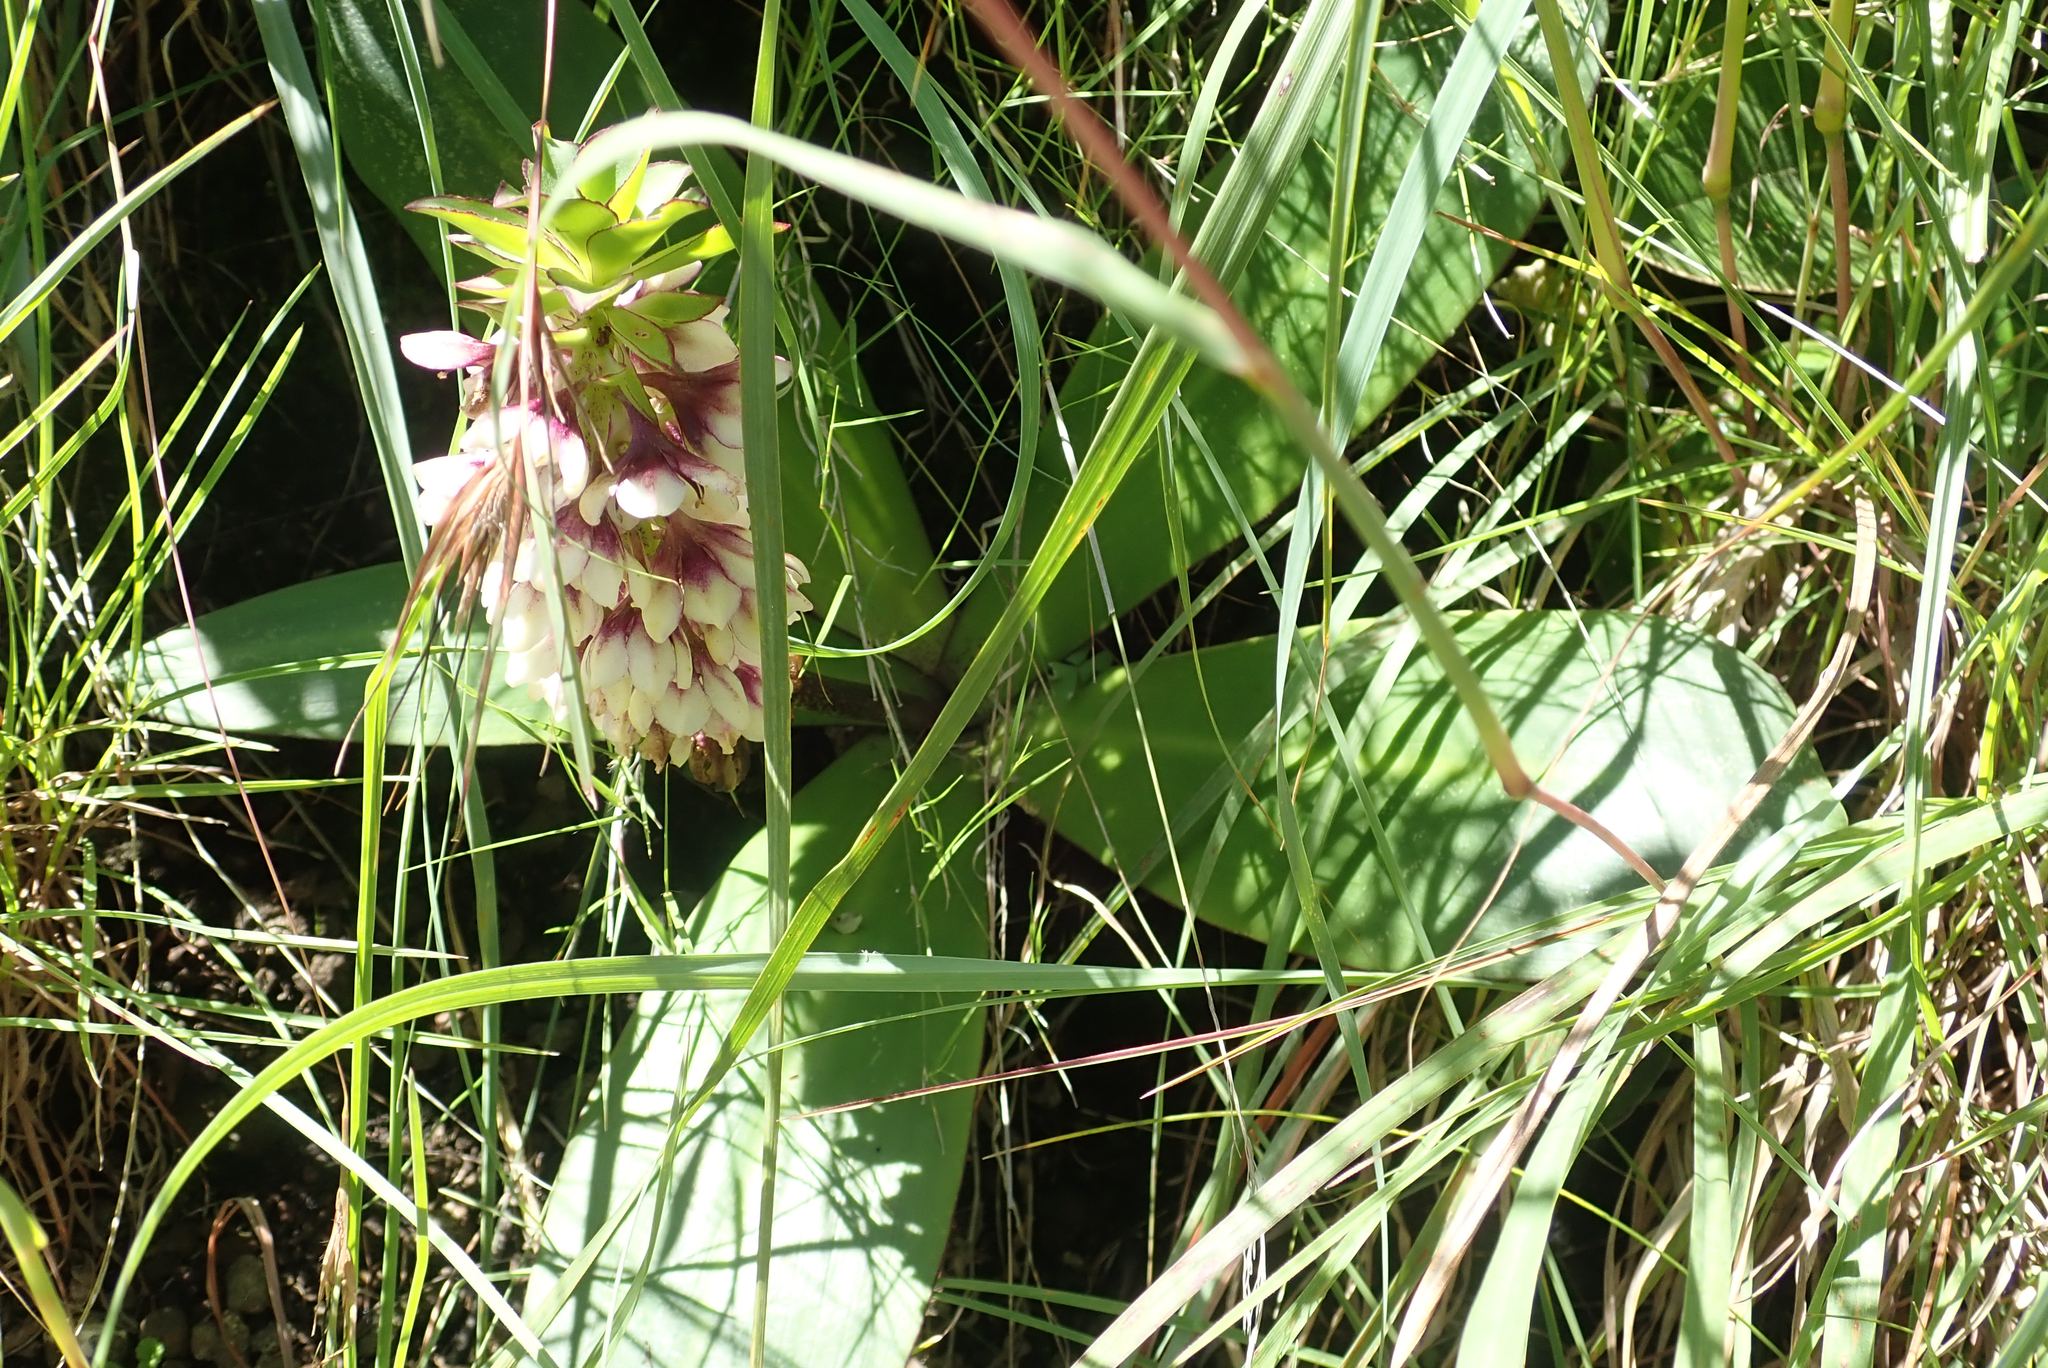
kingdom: Plantae
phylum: Tracheophyta
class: Liliopsida
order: Asparagales
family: Asparagaceae
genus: Eucomis
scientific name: Eucomis humilis
